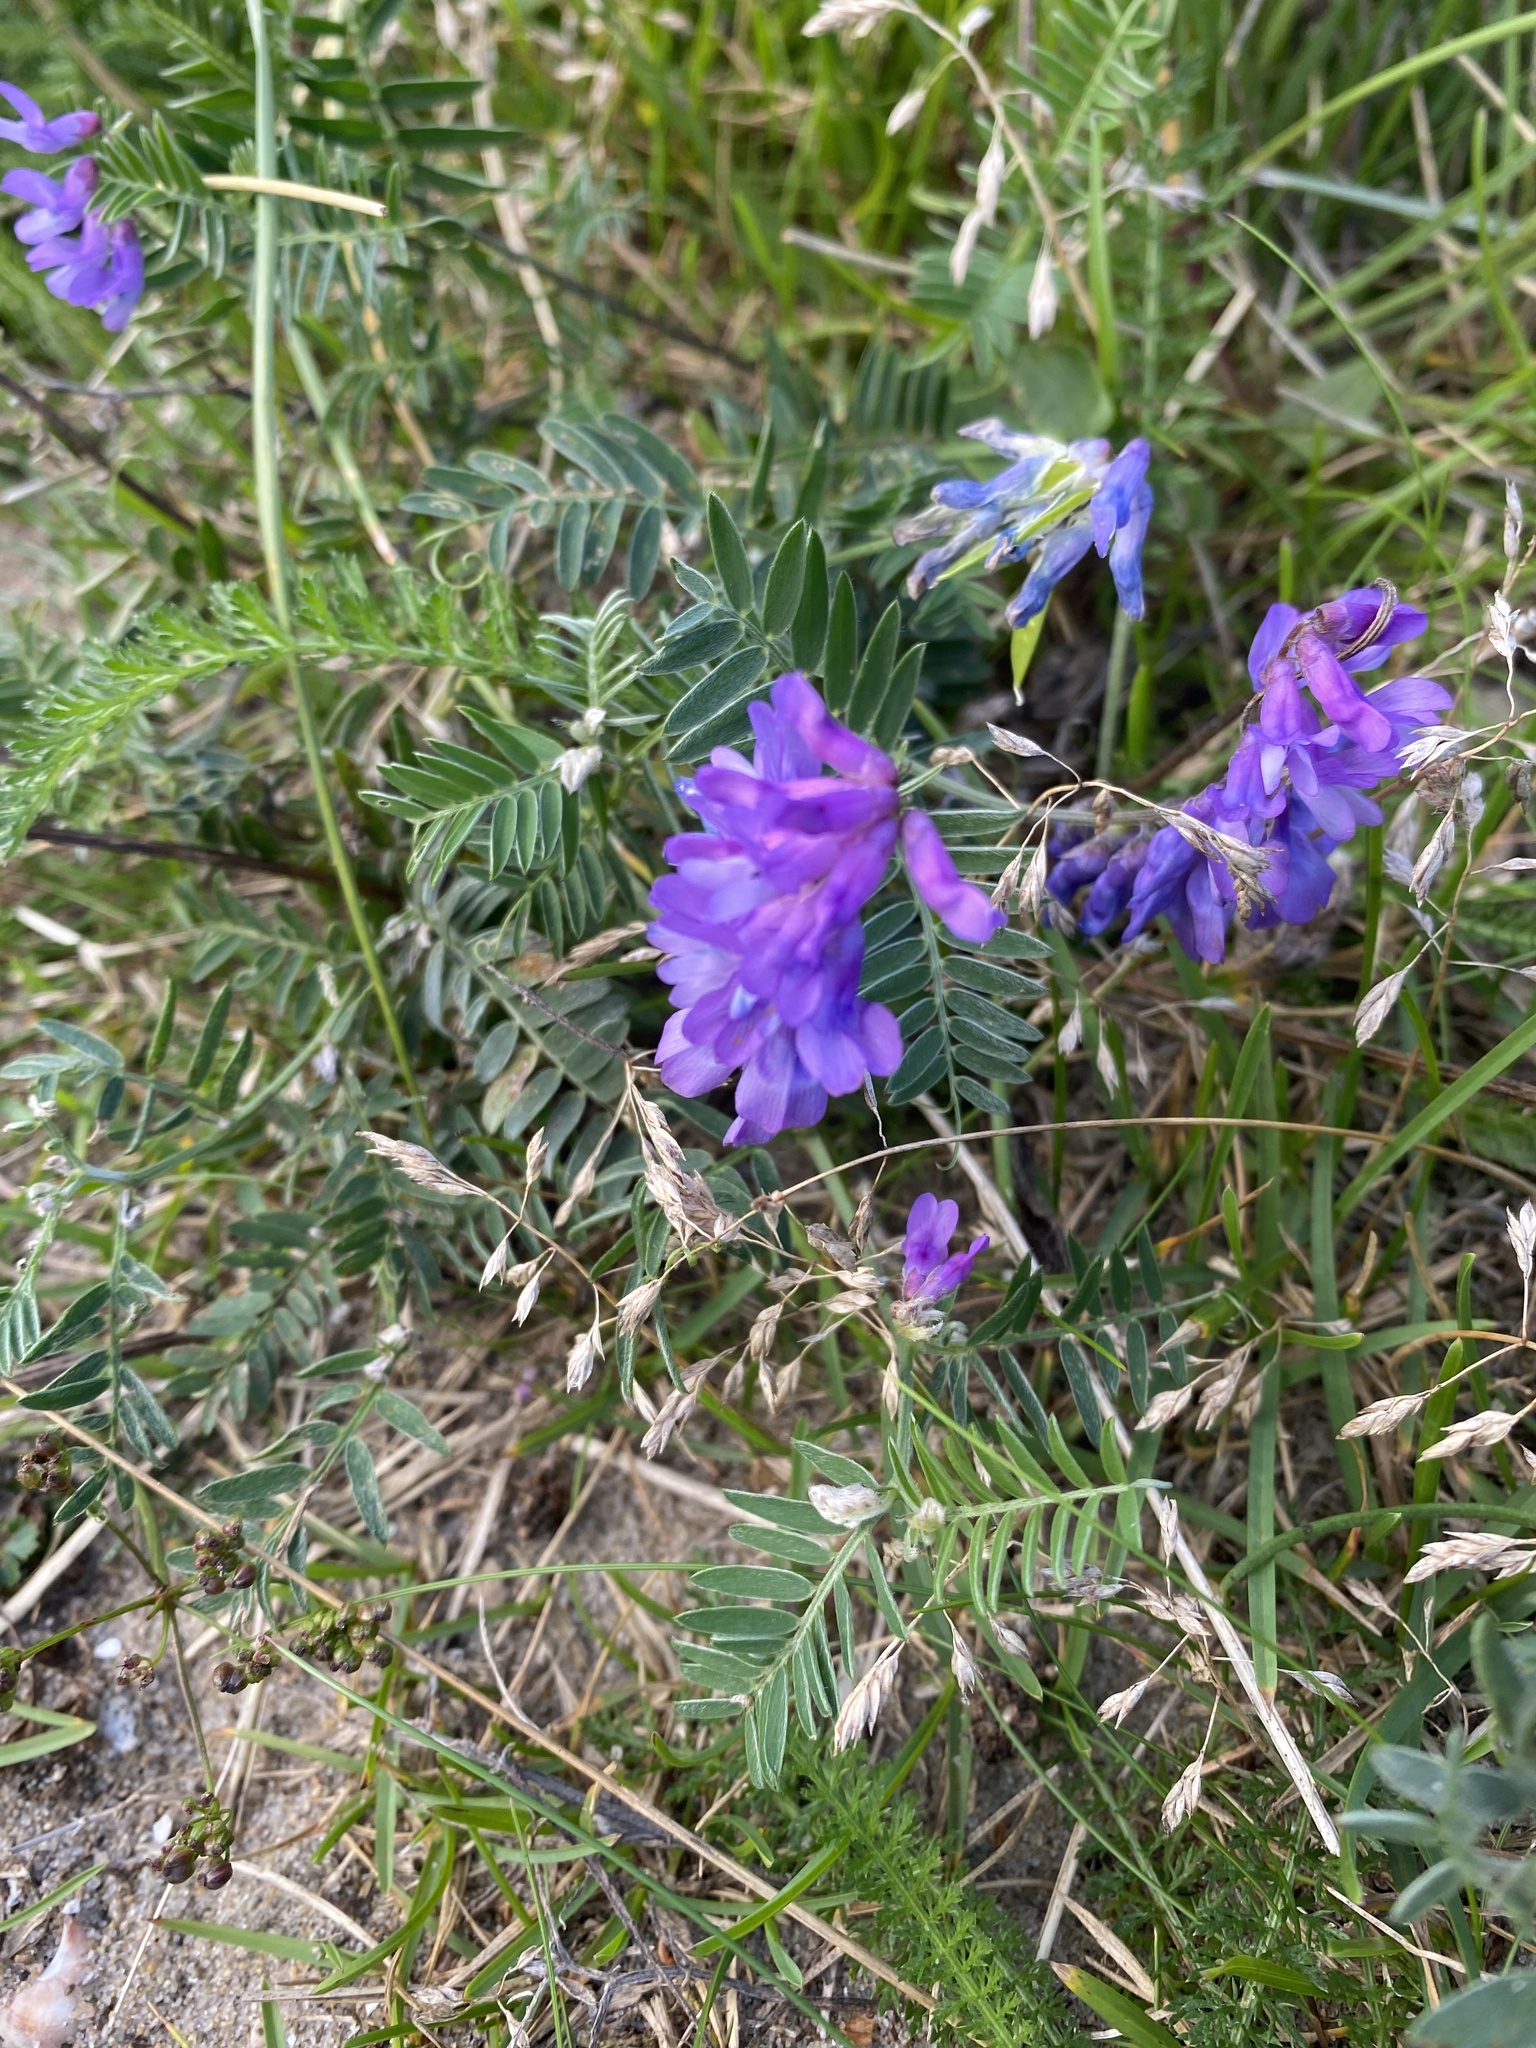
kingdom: Plantae
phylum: Tracheophyta
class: Magnoliopsida
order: Fabales
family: Fabaceae
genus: Vicia
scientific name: Vicia cracca
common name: Bird vetch
